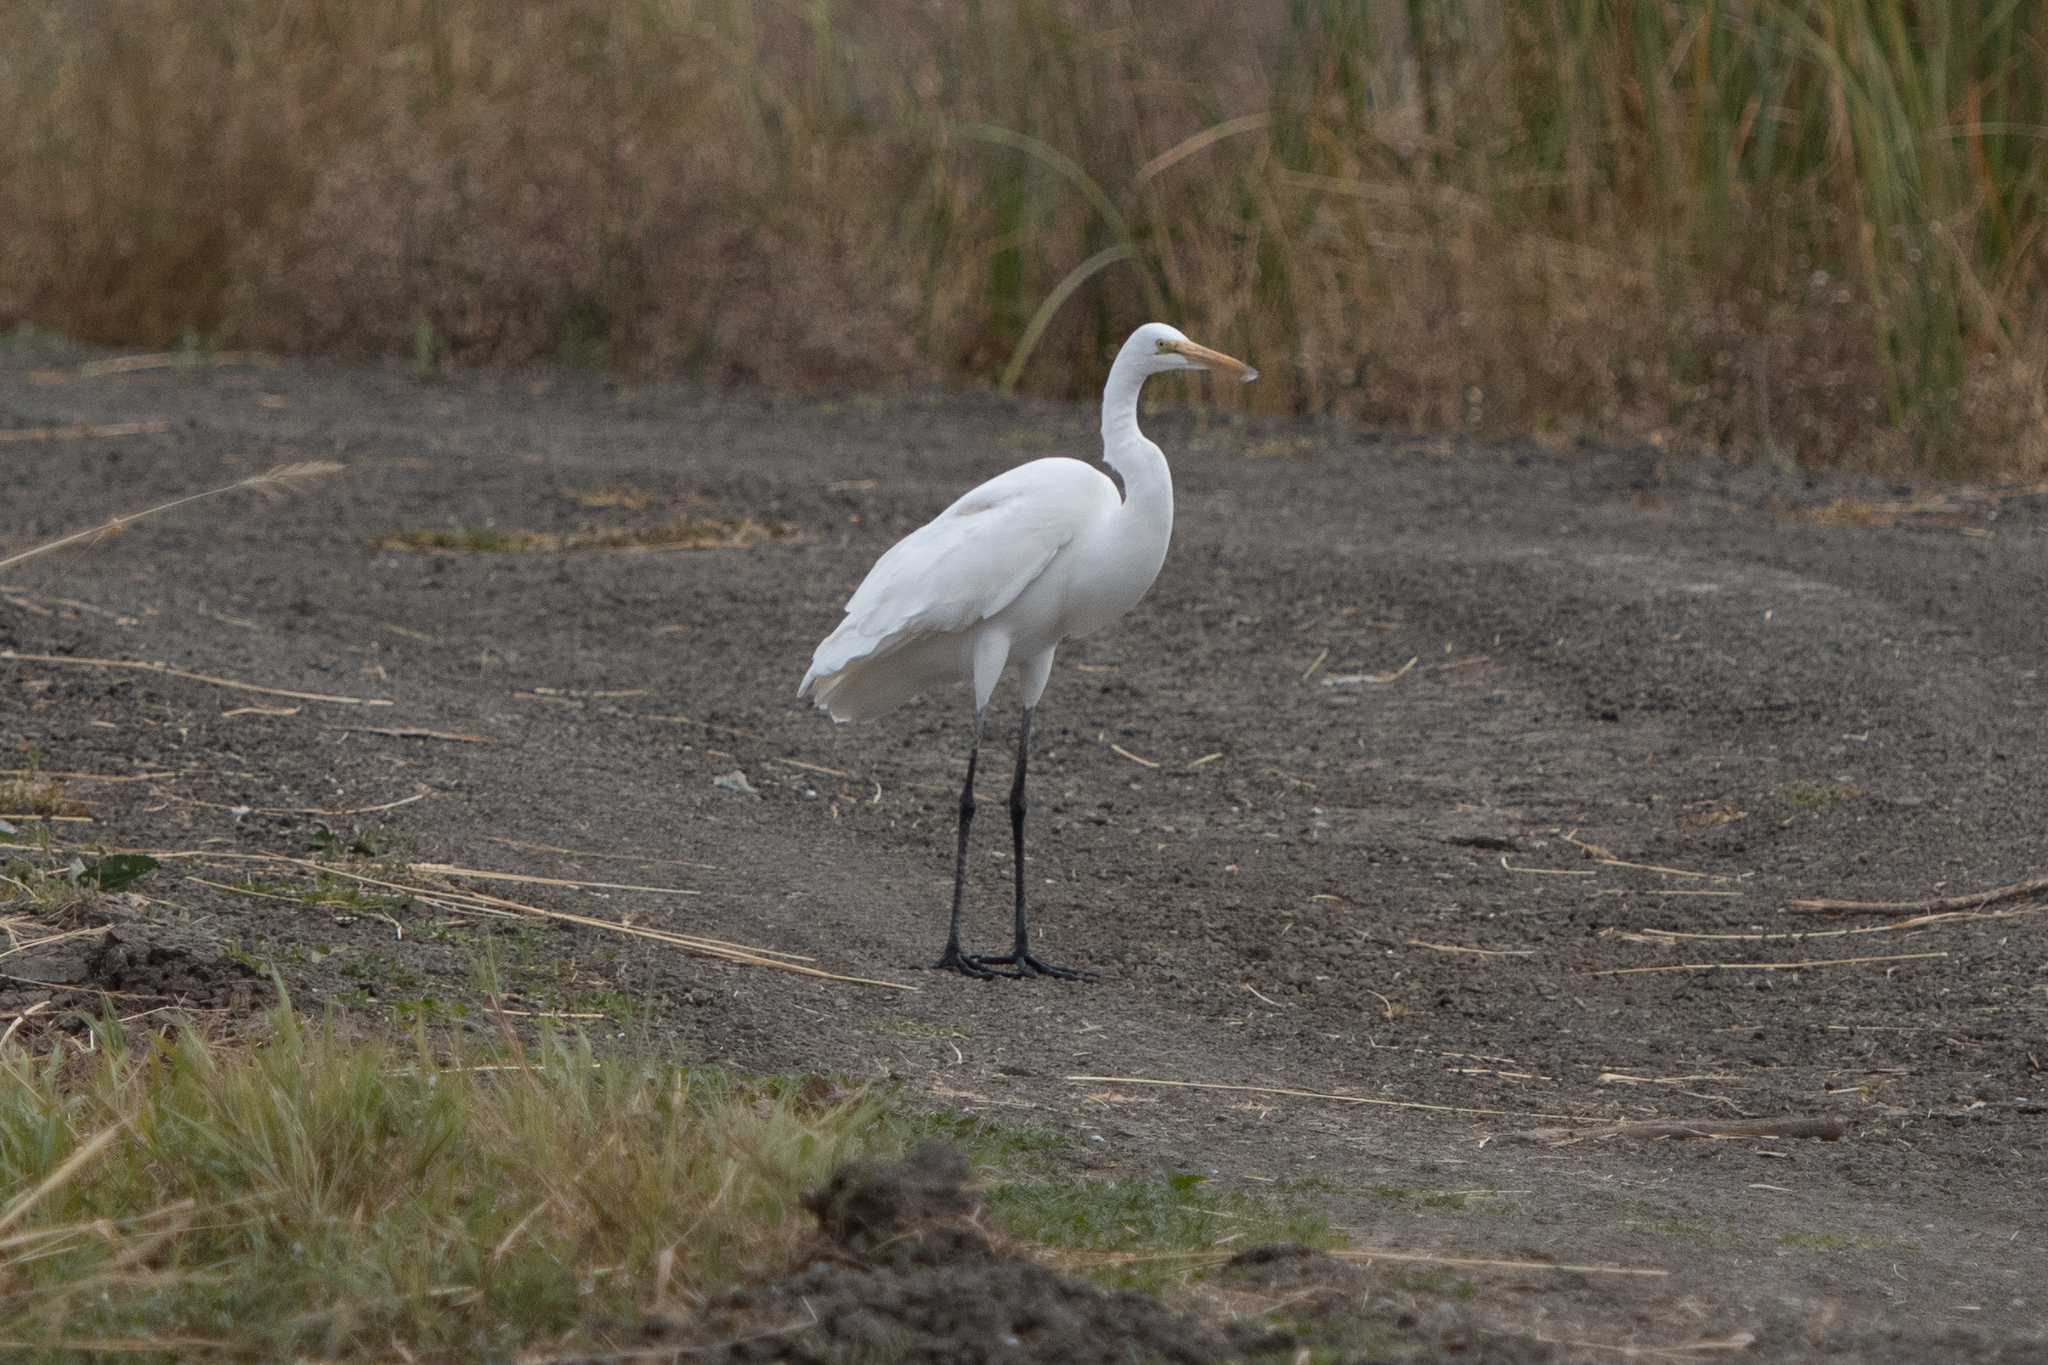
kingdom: Animalia
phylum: Chordata
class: Aves
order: Pelecaniformes
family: Ardeidae
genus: Ardea
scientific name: Ardea alba
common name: Great egret
